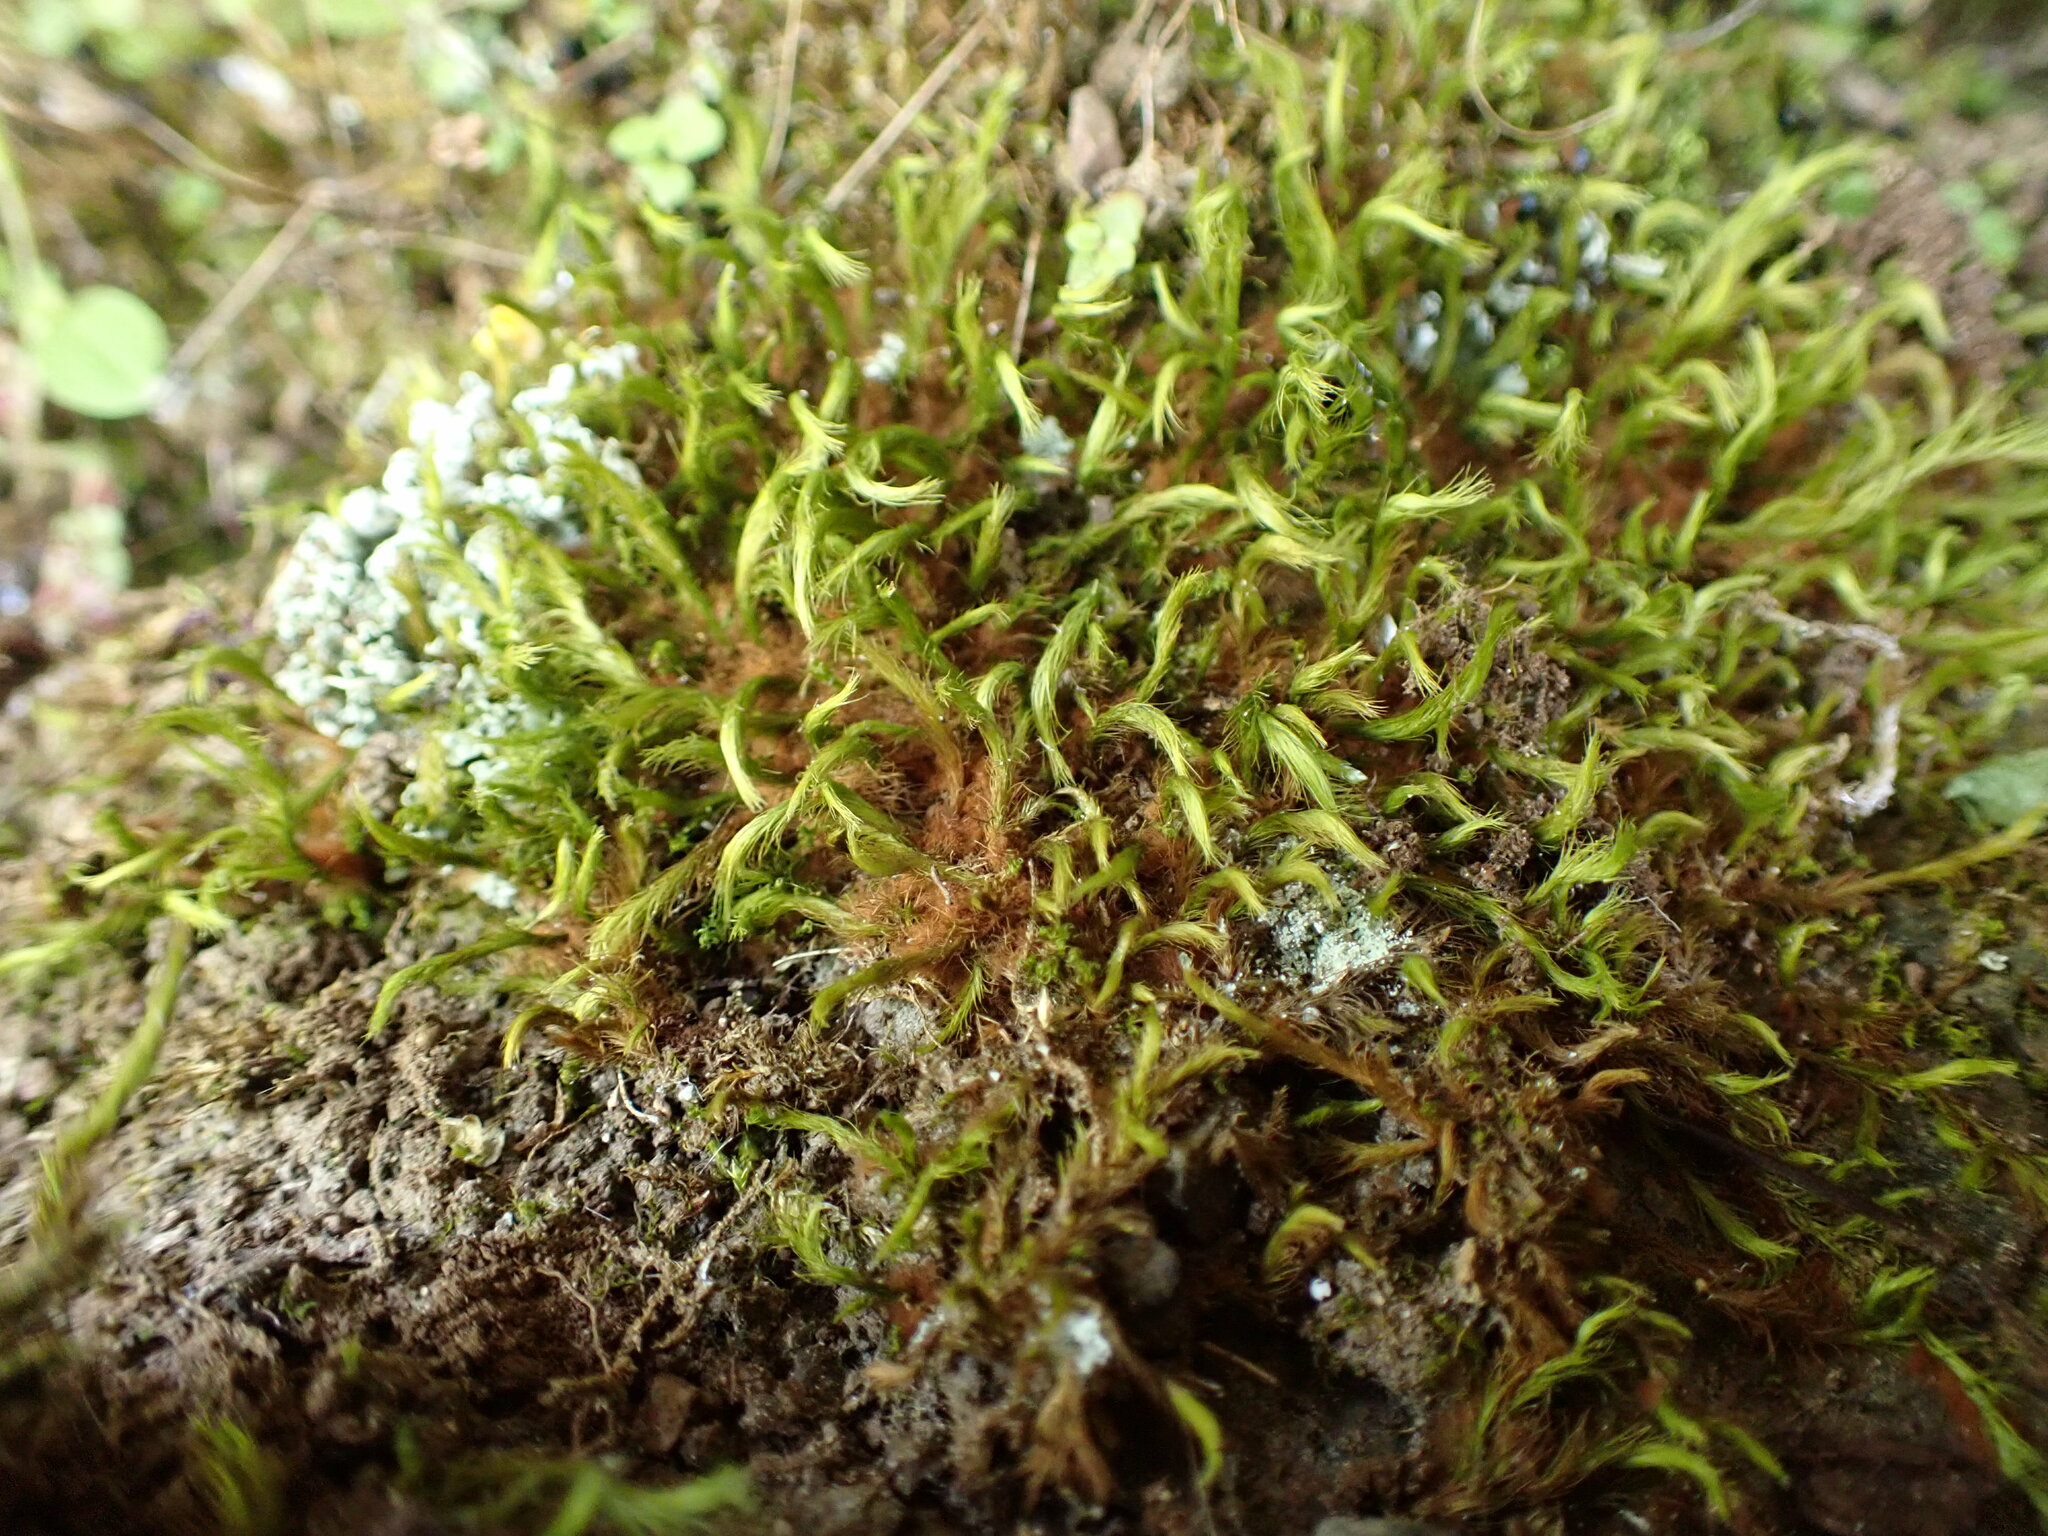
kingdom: Plantae
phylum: Bryophyta
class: Bryopsida
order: Bartramiales
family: Bartramiaceae
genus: Anacolia
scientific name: Anacolia menziesii
